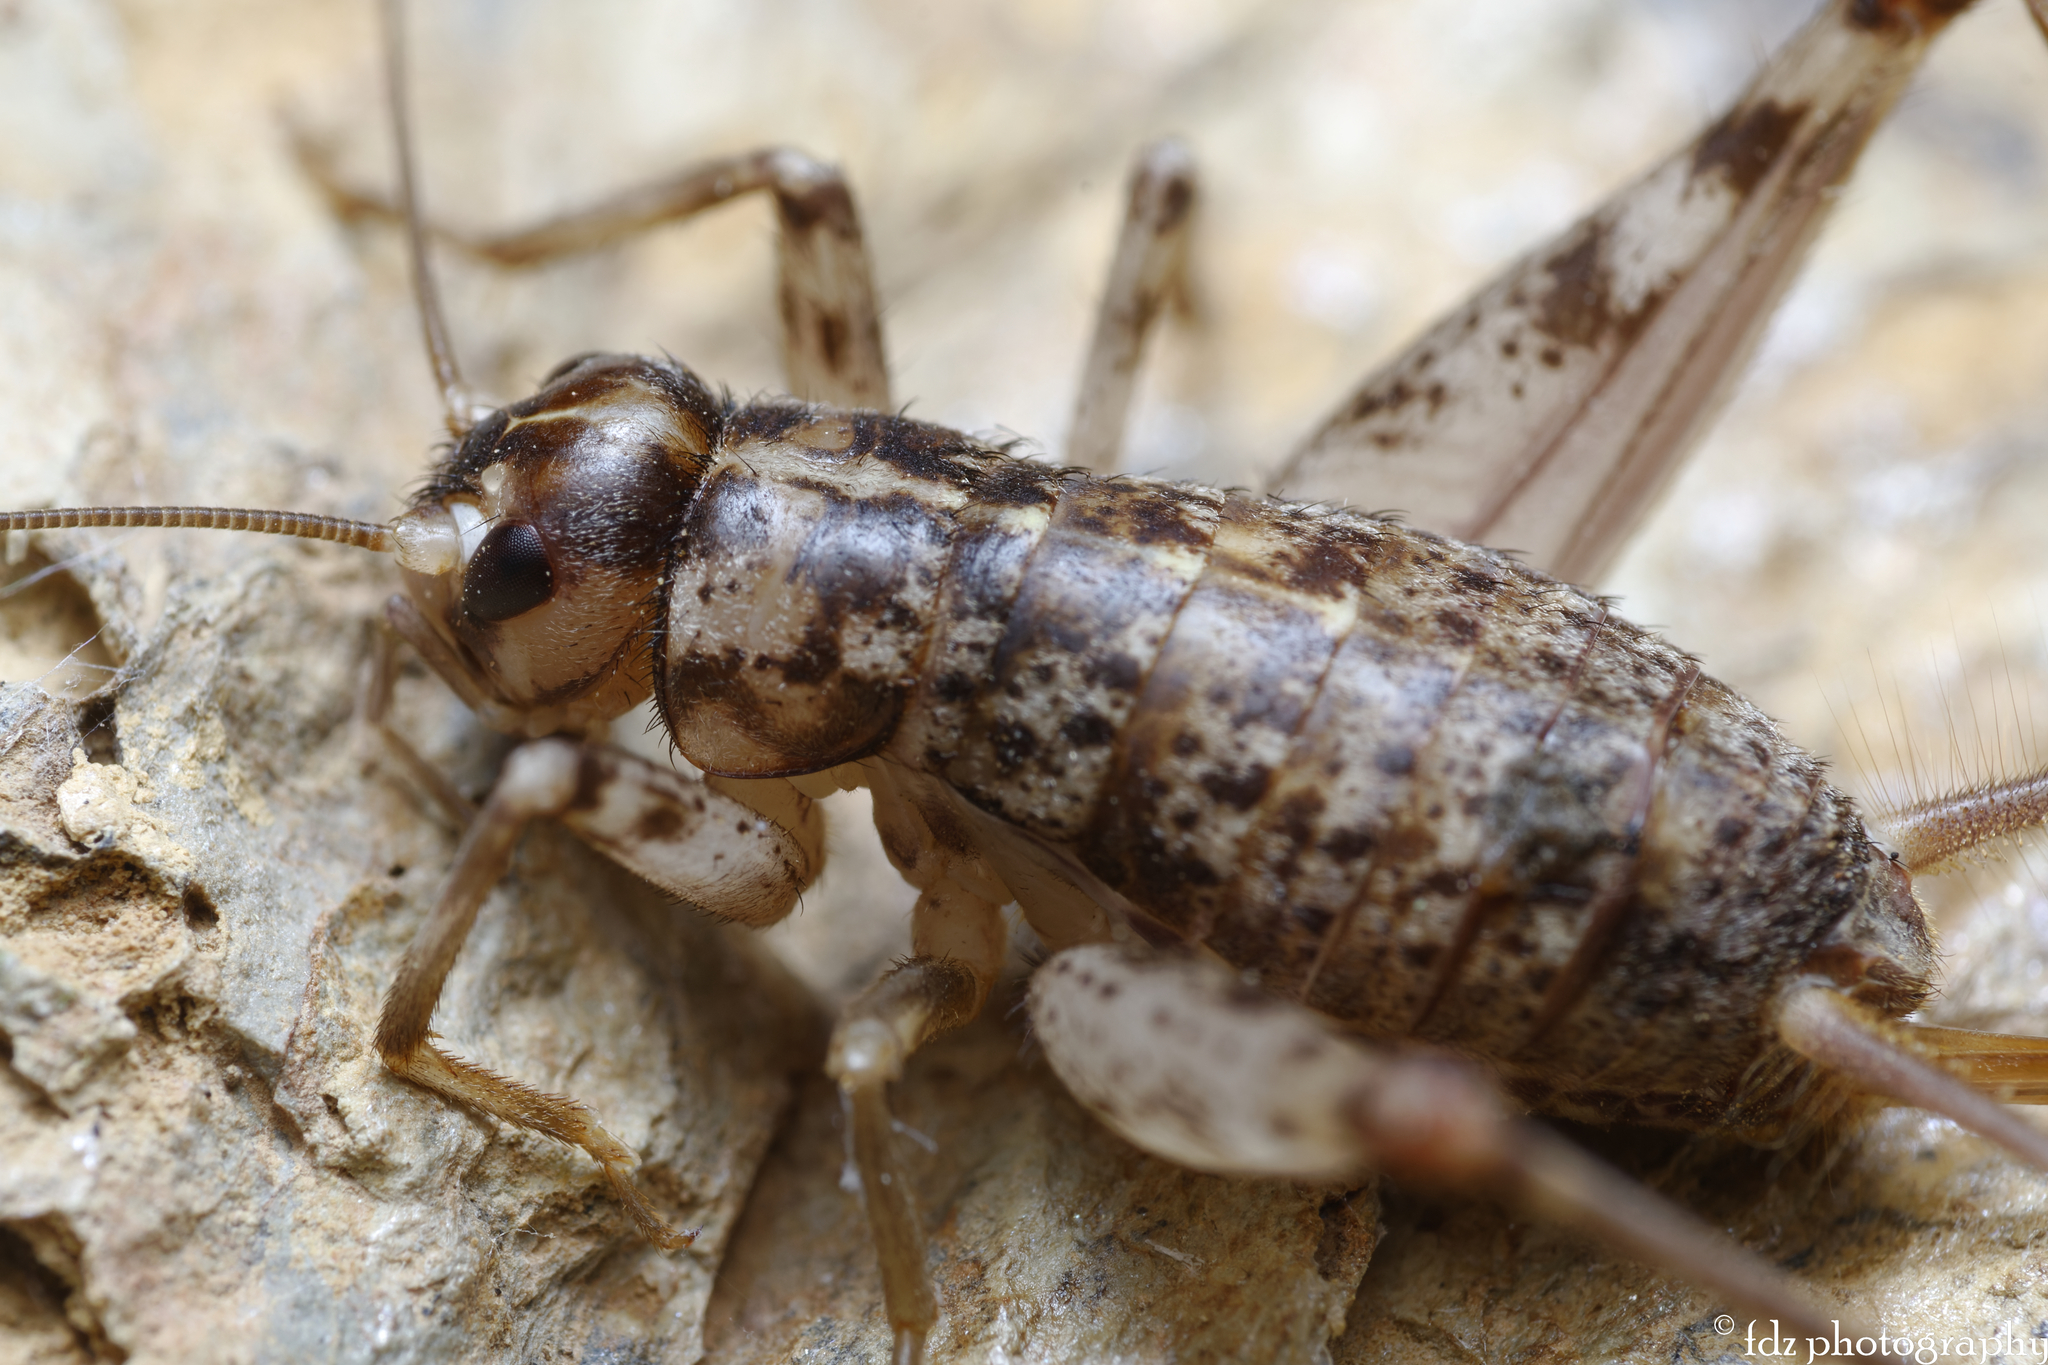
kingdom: Animalia
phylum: Arthropoda
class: Insecta
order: Orthoptera
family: Gryllidae
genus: Gryllomorpha
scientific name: Gryllomorpha longicauda
